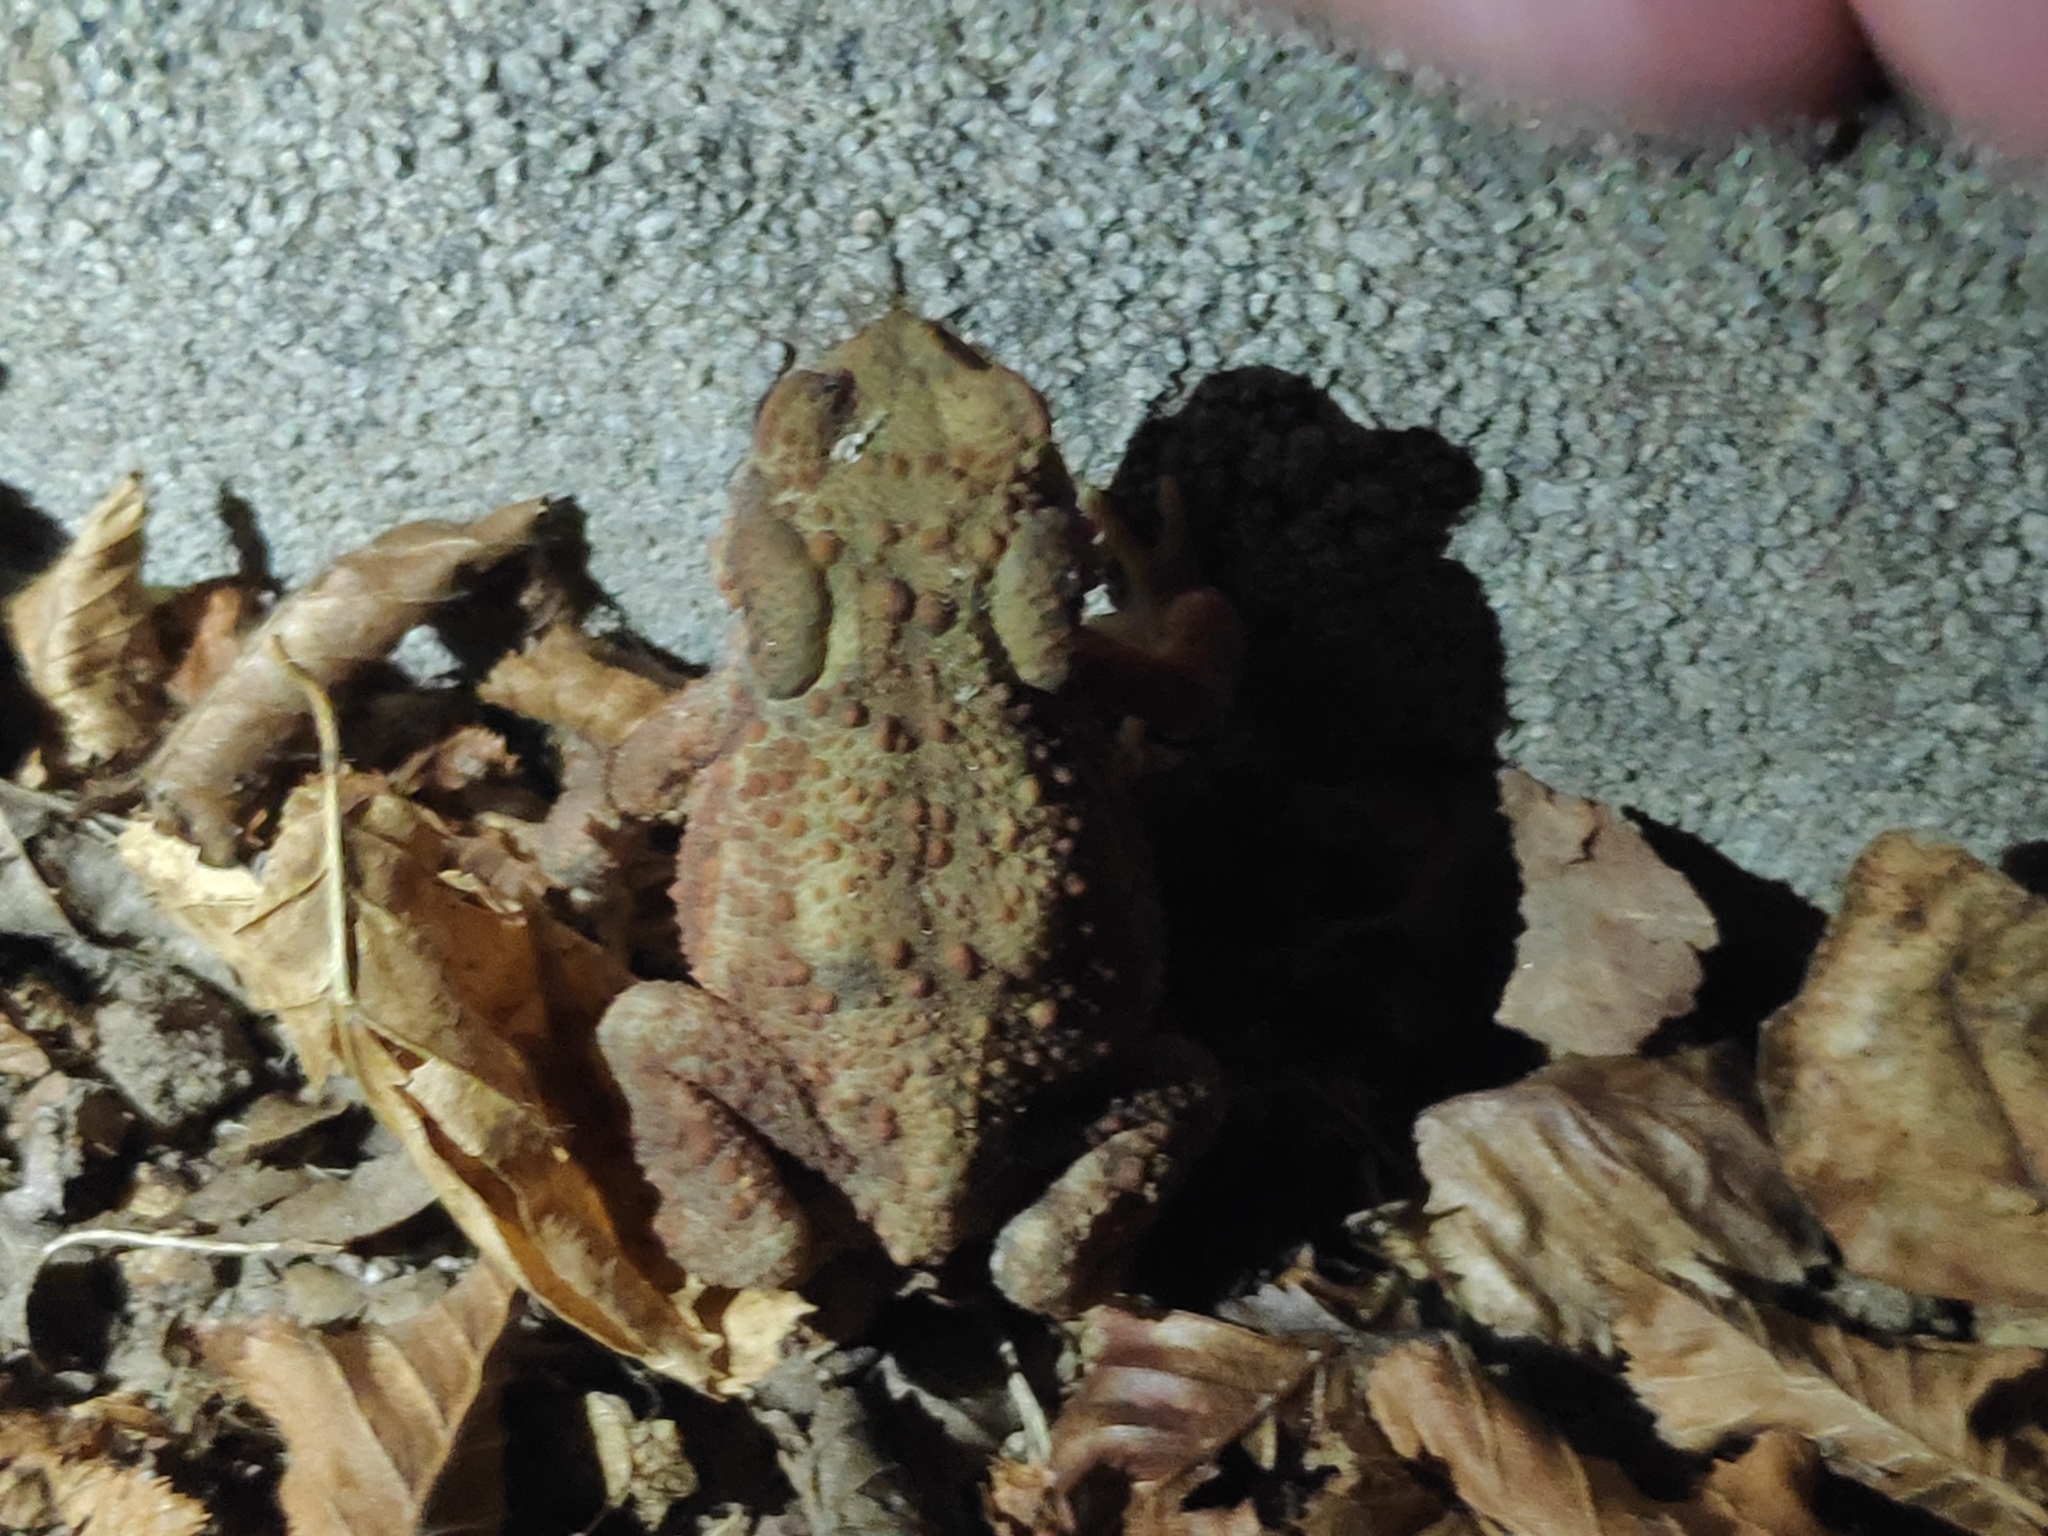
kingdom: Animalia
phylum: Chordata
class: Amphibia
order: Anura
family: Bufonidae
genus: Bufo
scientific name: Bufo bufo
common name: Common toad
